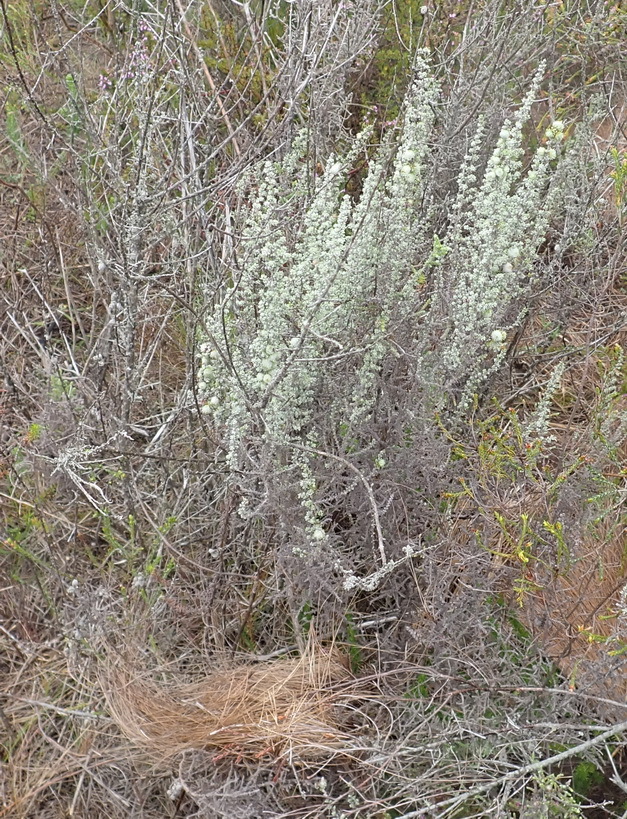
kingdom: Plantae
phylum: Tracheophyta
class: Magnoliopsida
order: Asterales
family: Asteraceae
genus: Seriphium
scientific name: Seriphium plumosum
